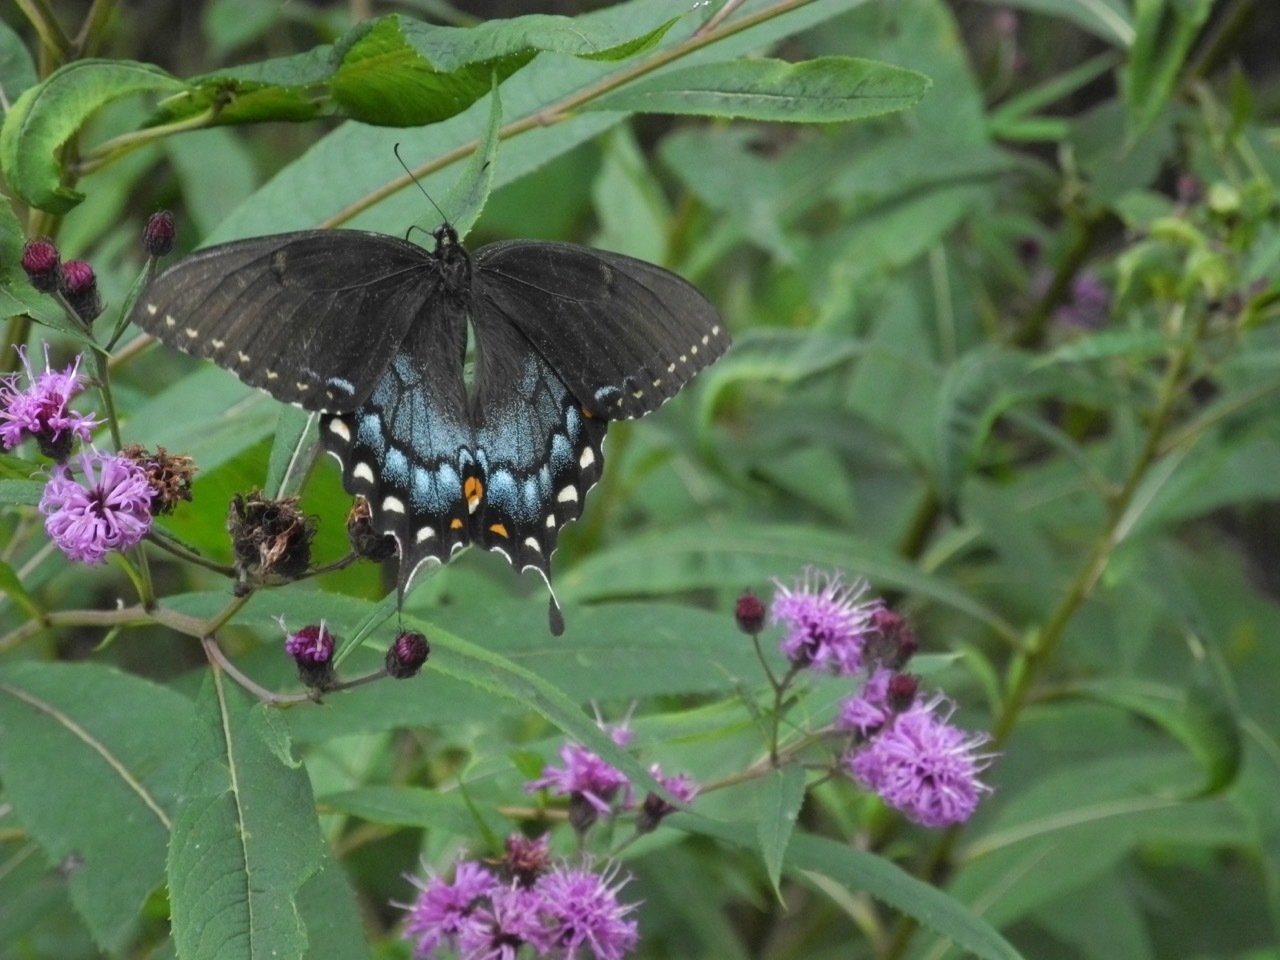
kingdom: Animalia
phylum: Arthropoda
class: Insecta
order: Lepidoptera
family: Papilionidae
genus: Papilio
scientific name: Papilio glaucus
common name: Tiger swallowtail
